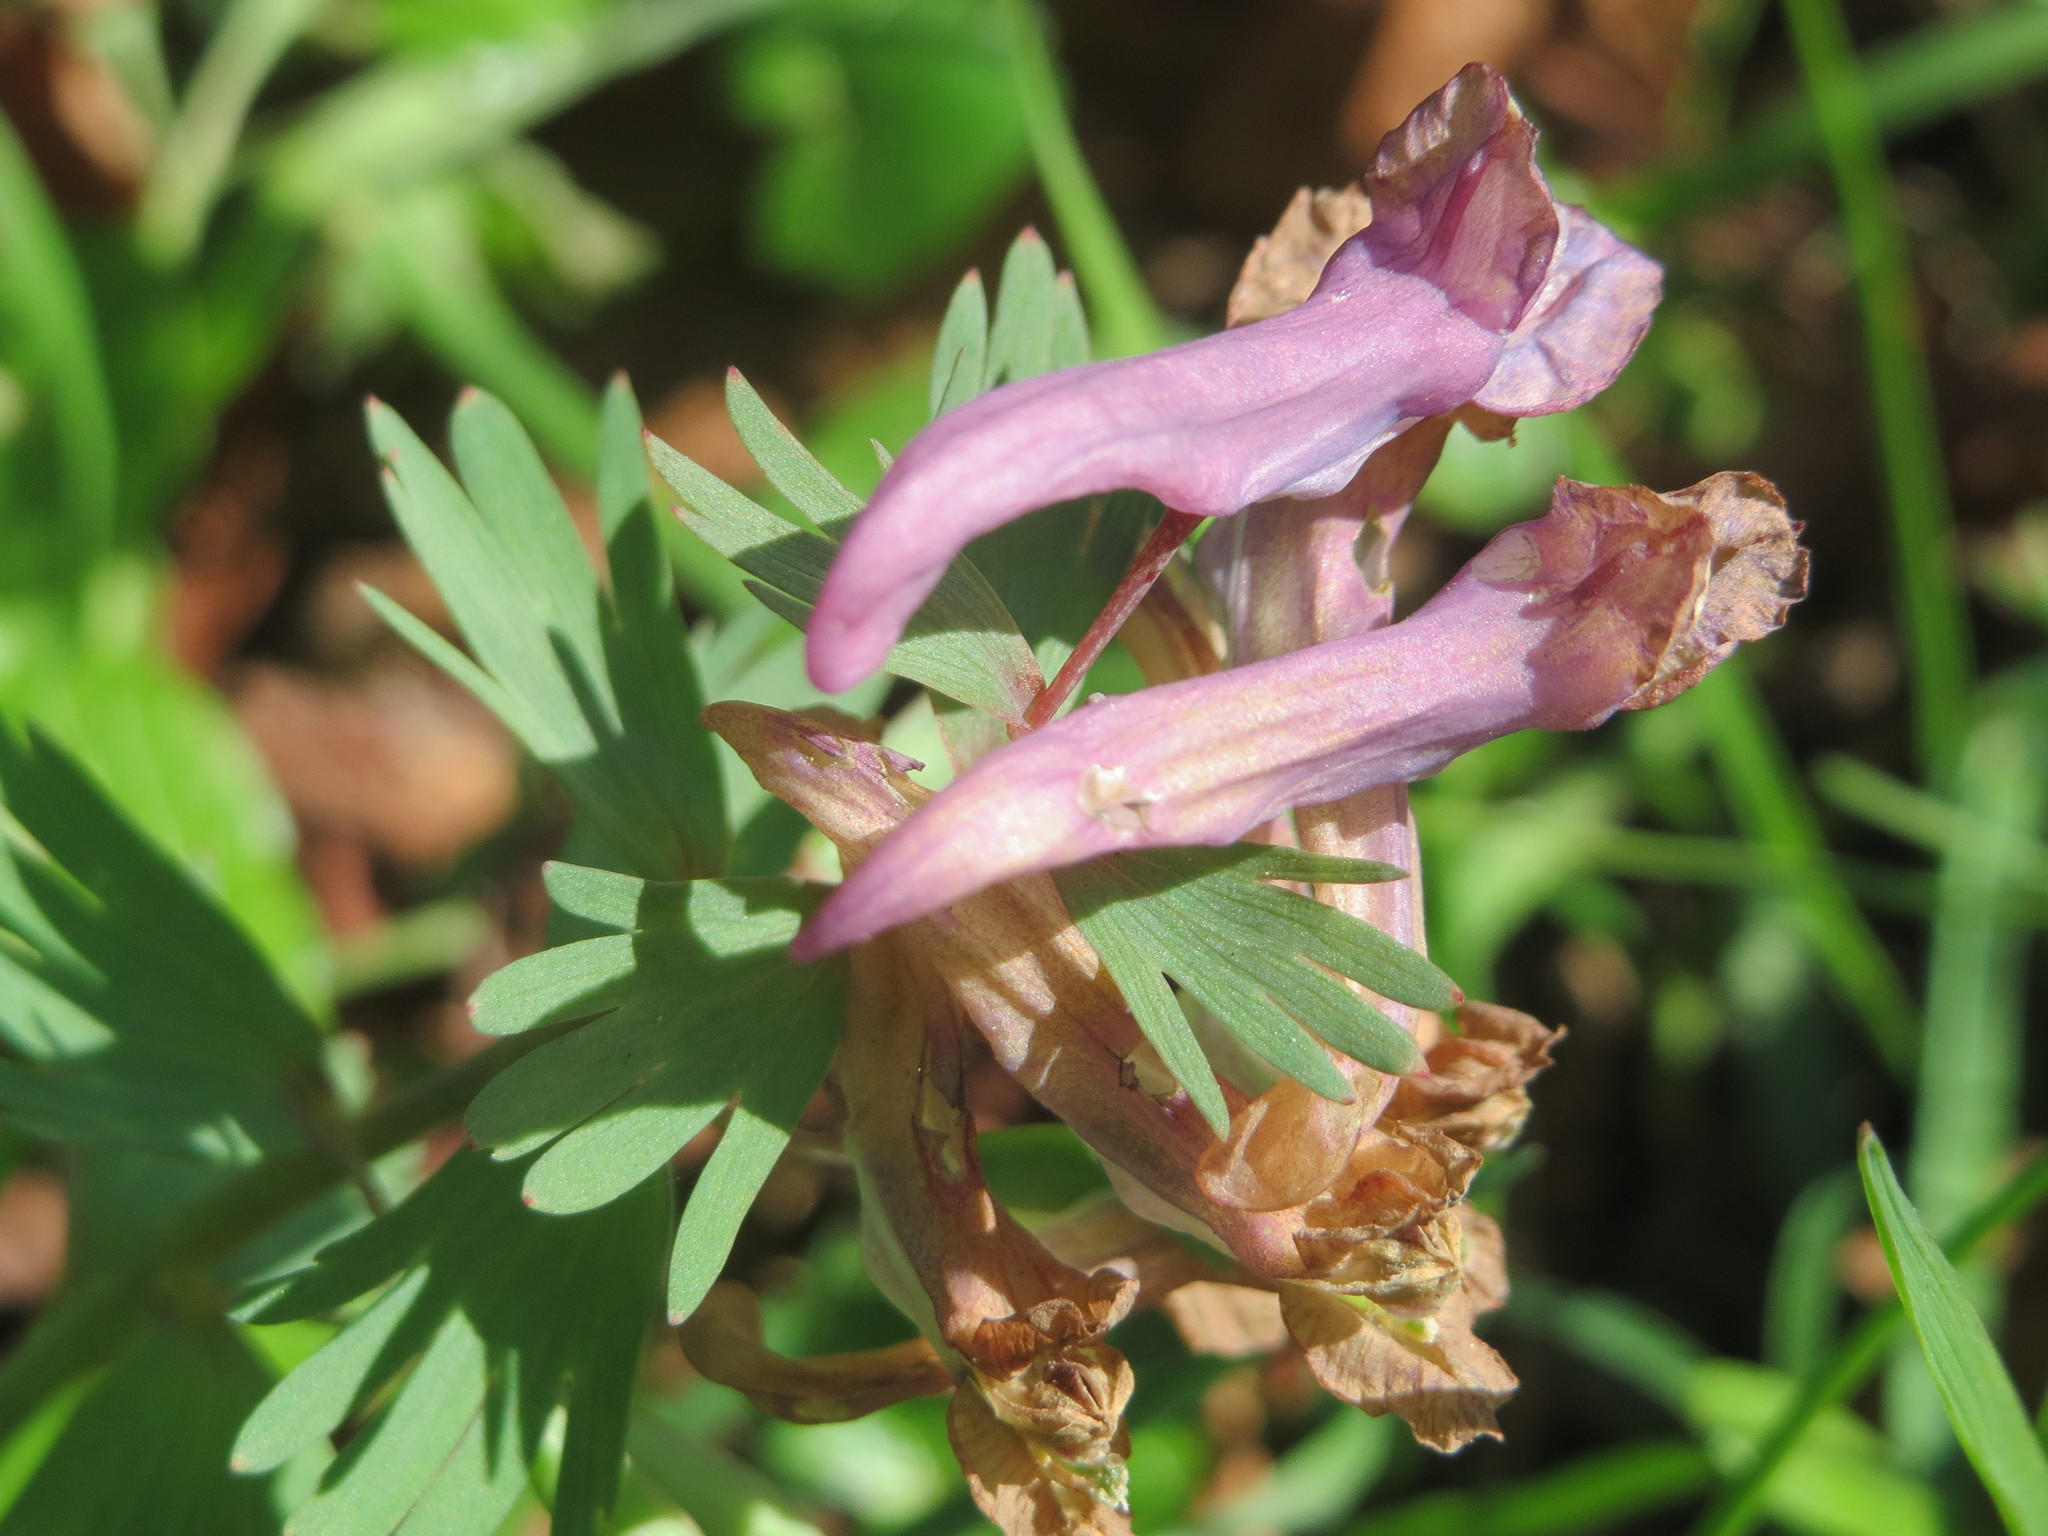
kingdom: Plantae
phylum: Tracheophyta
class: Magnoliopsida
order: Ranunculales
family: Papaveraceae
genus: Corydalis
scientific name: Corydalis solida
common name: Bird-in-a-bush
